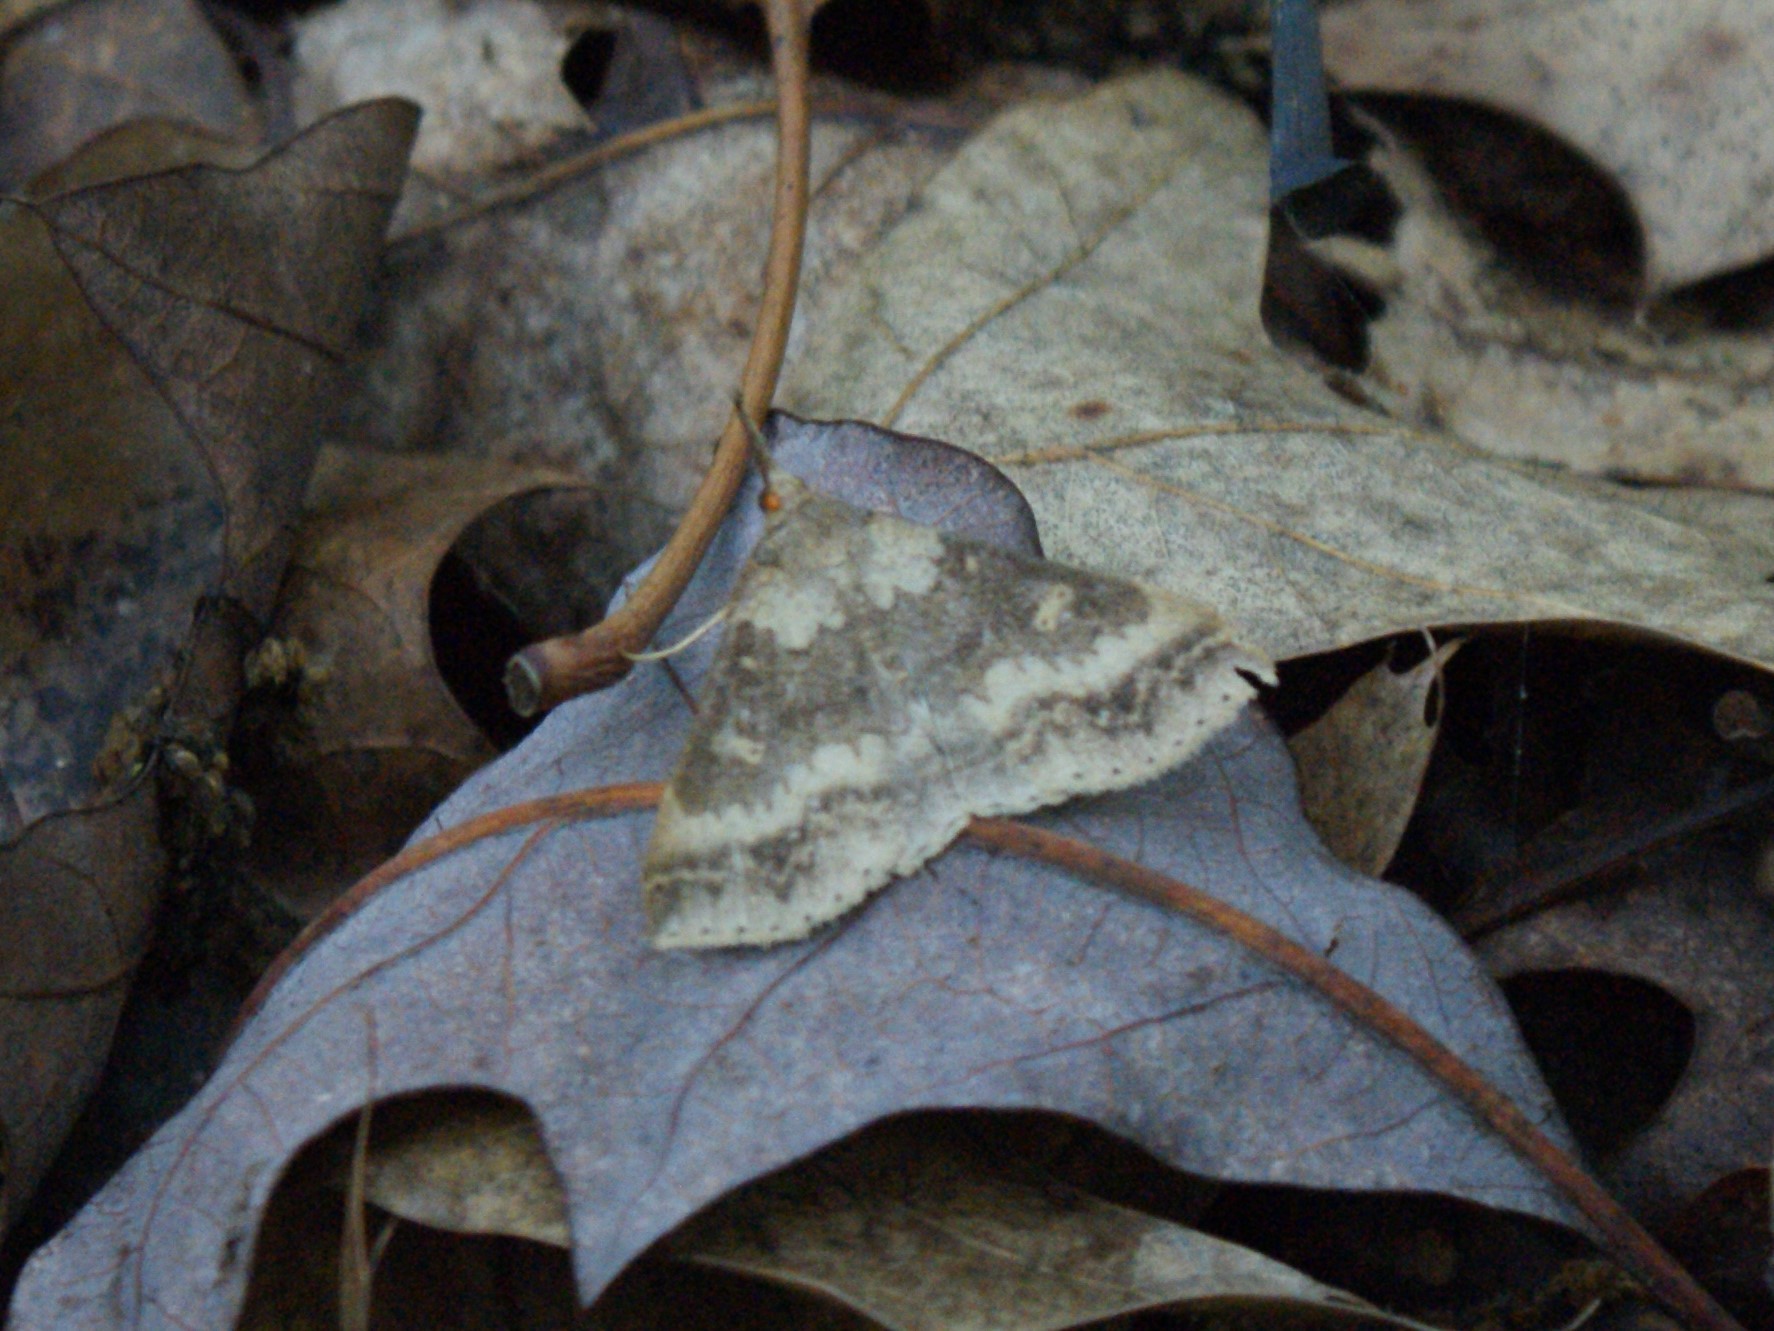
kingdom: Animalia
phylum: Arthropoda
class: Insecta
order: Lepidoptera
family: Erebidae
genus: Renia
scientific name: Renia discoloralis
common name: Discolored renia moth
